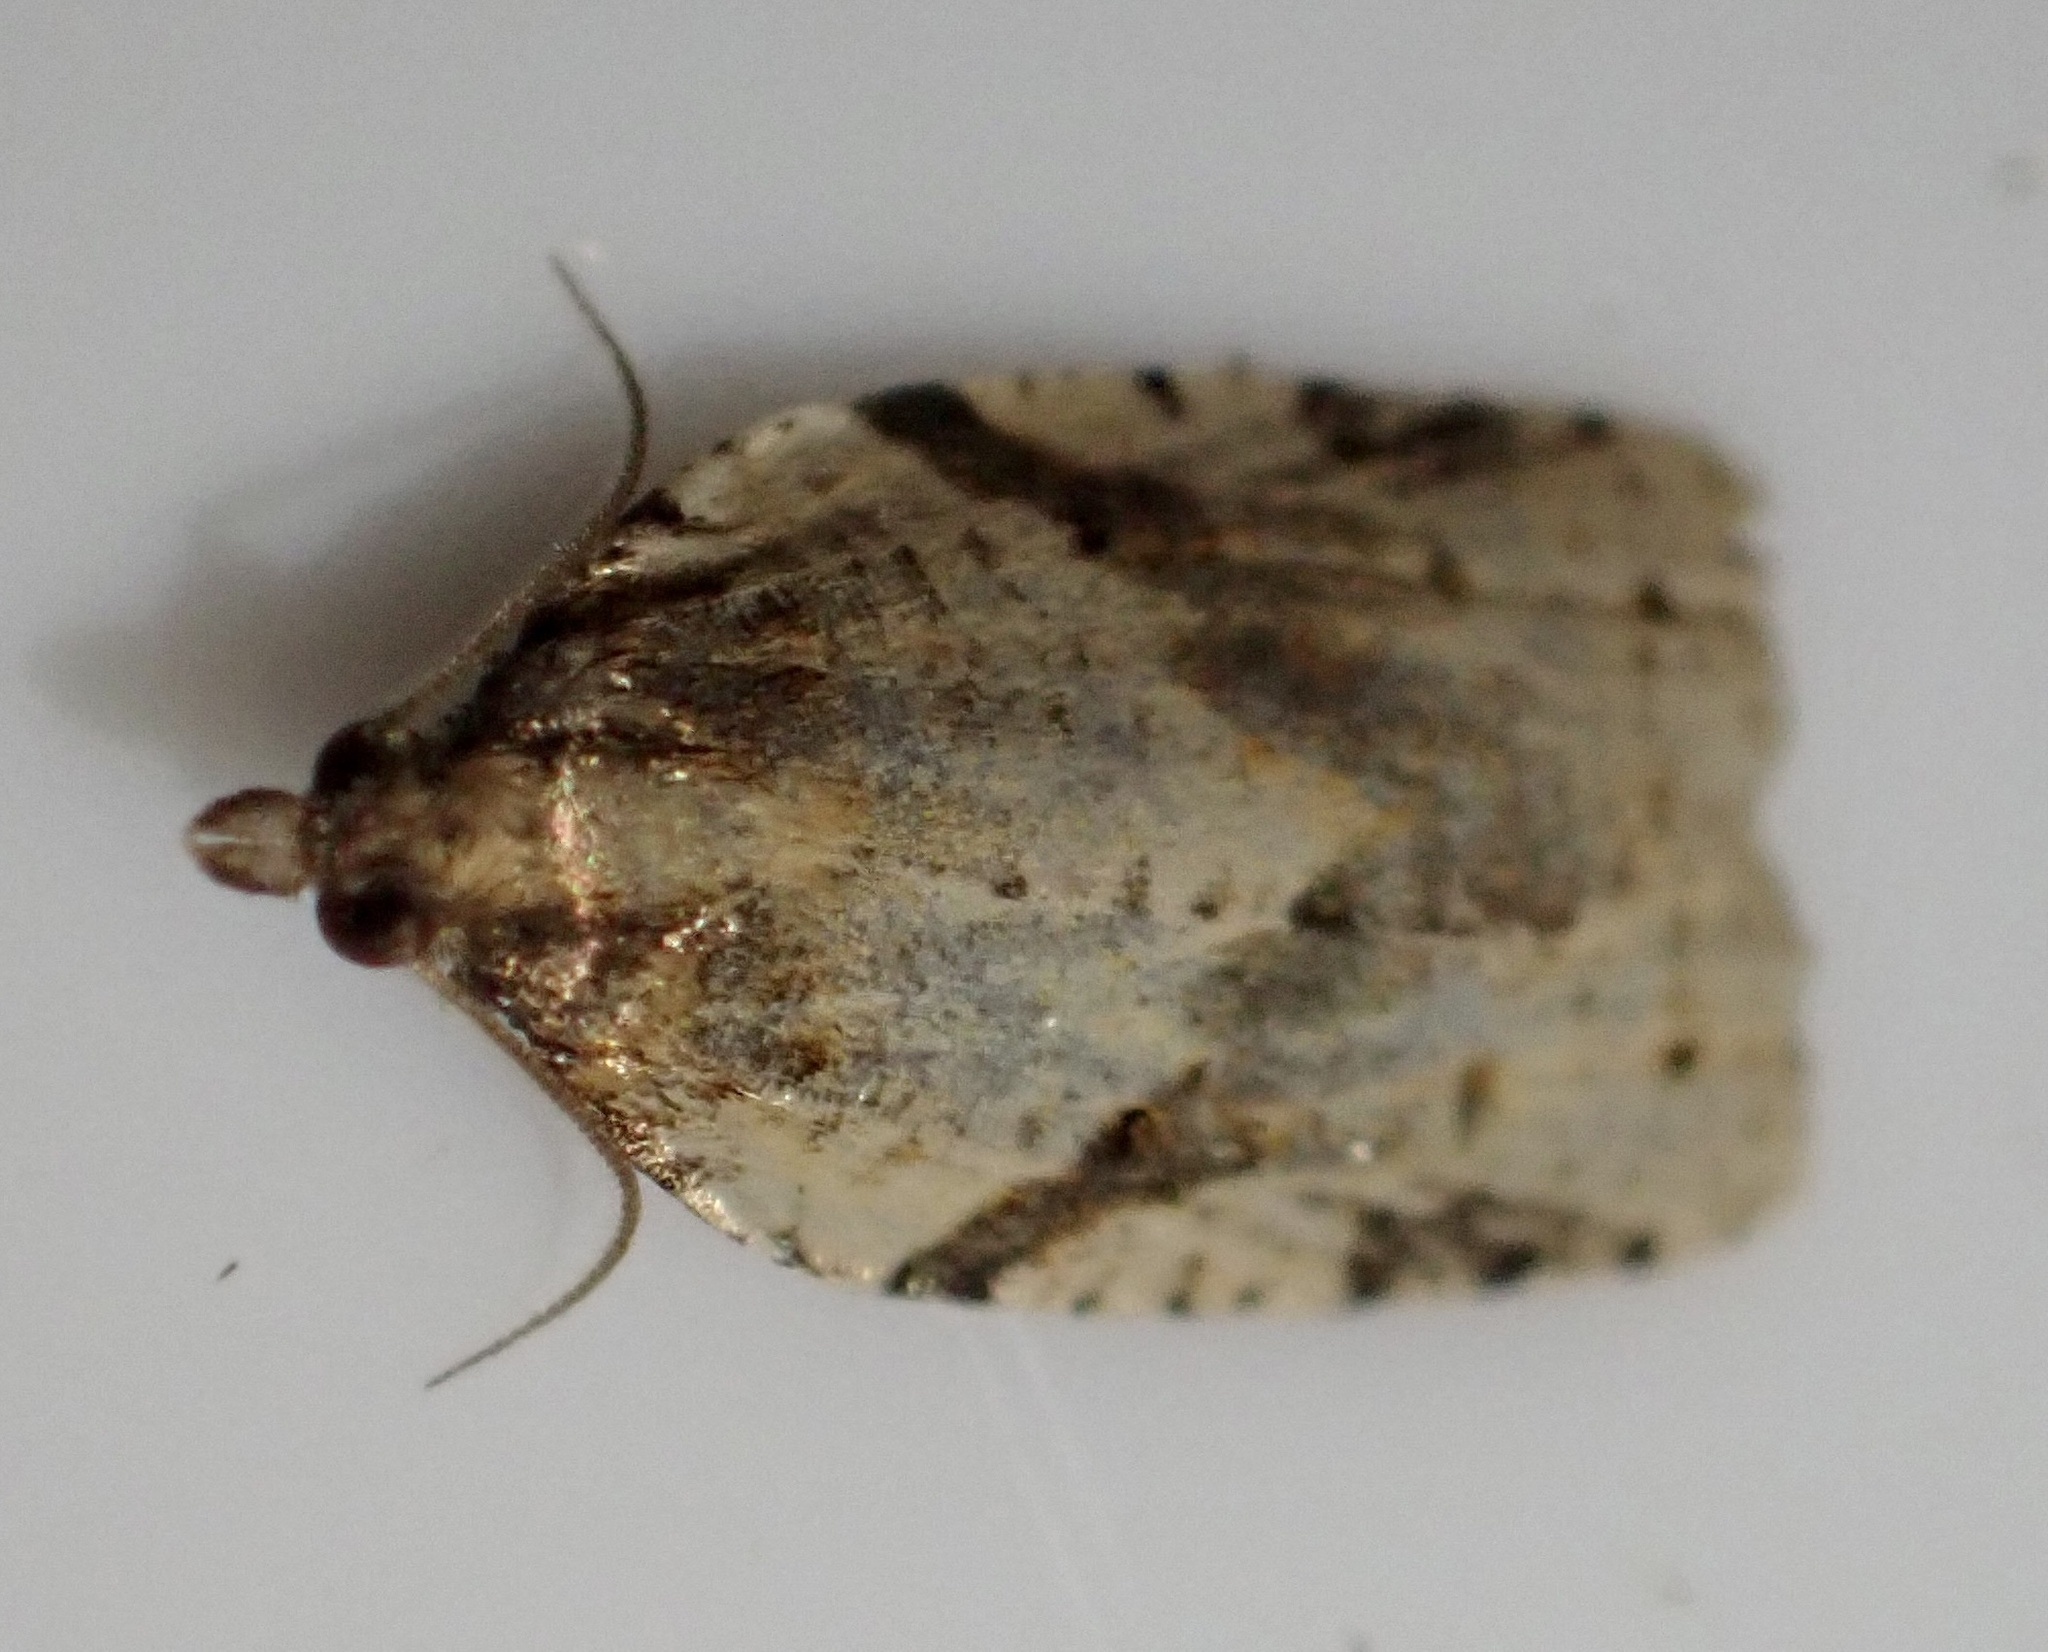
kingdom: Animalia
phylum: Arthropoda
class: Insecta
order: Lepidoptera
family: Tortricidae
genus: Clepsis
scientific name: Clepsis spectrana
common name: Cyclamen tortrix
